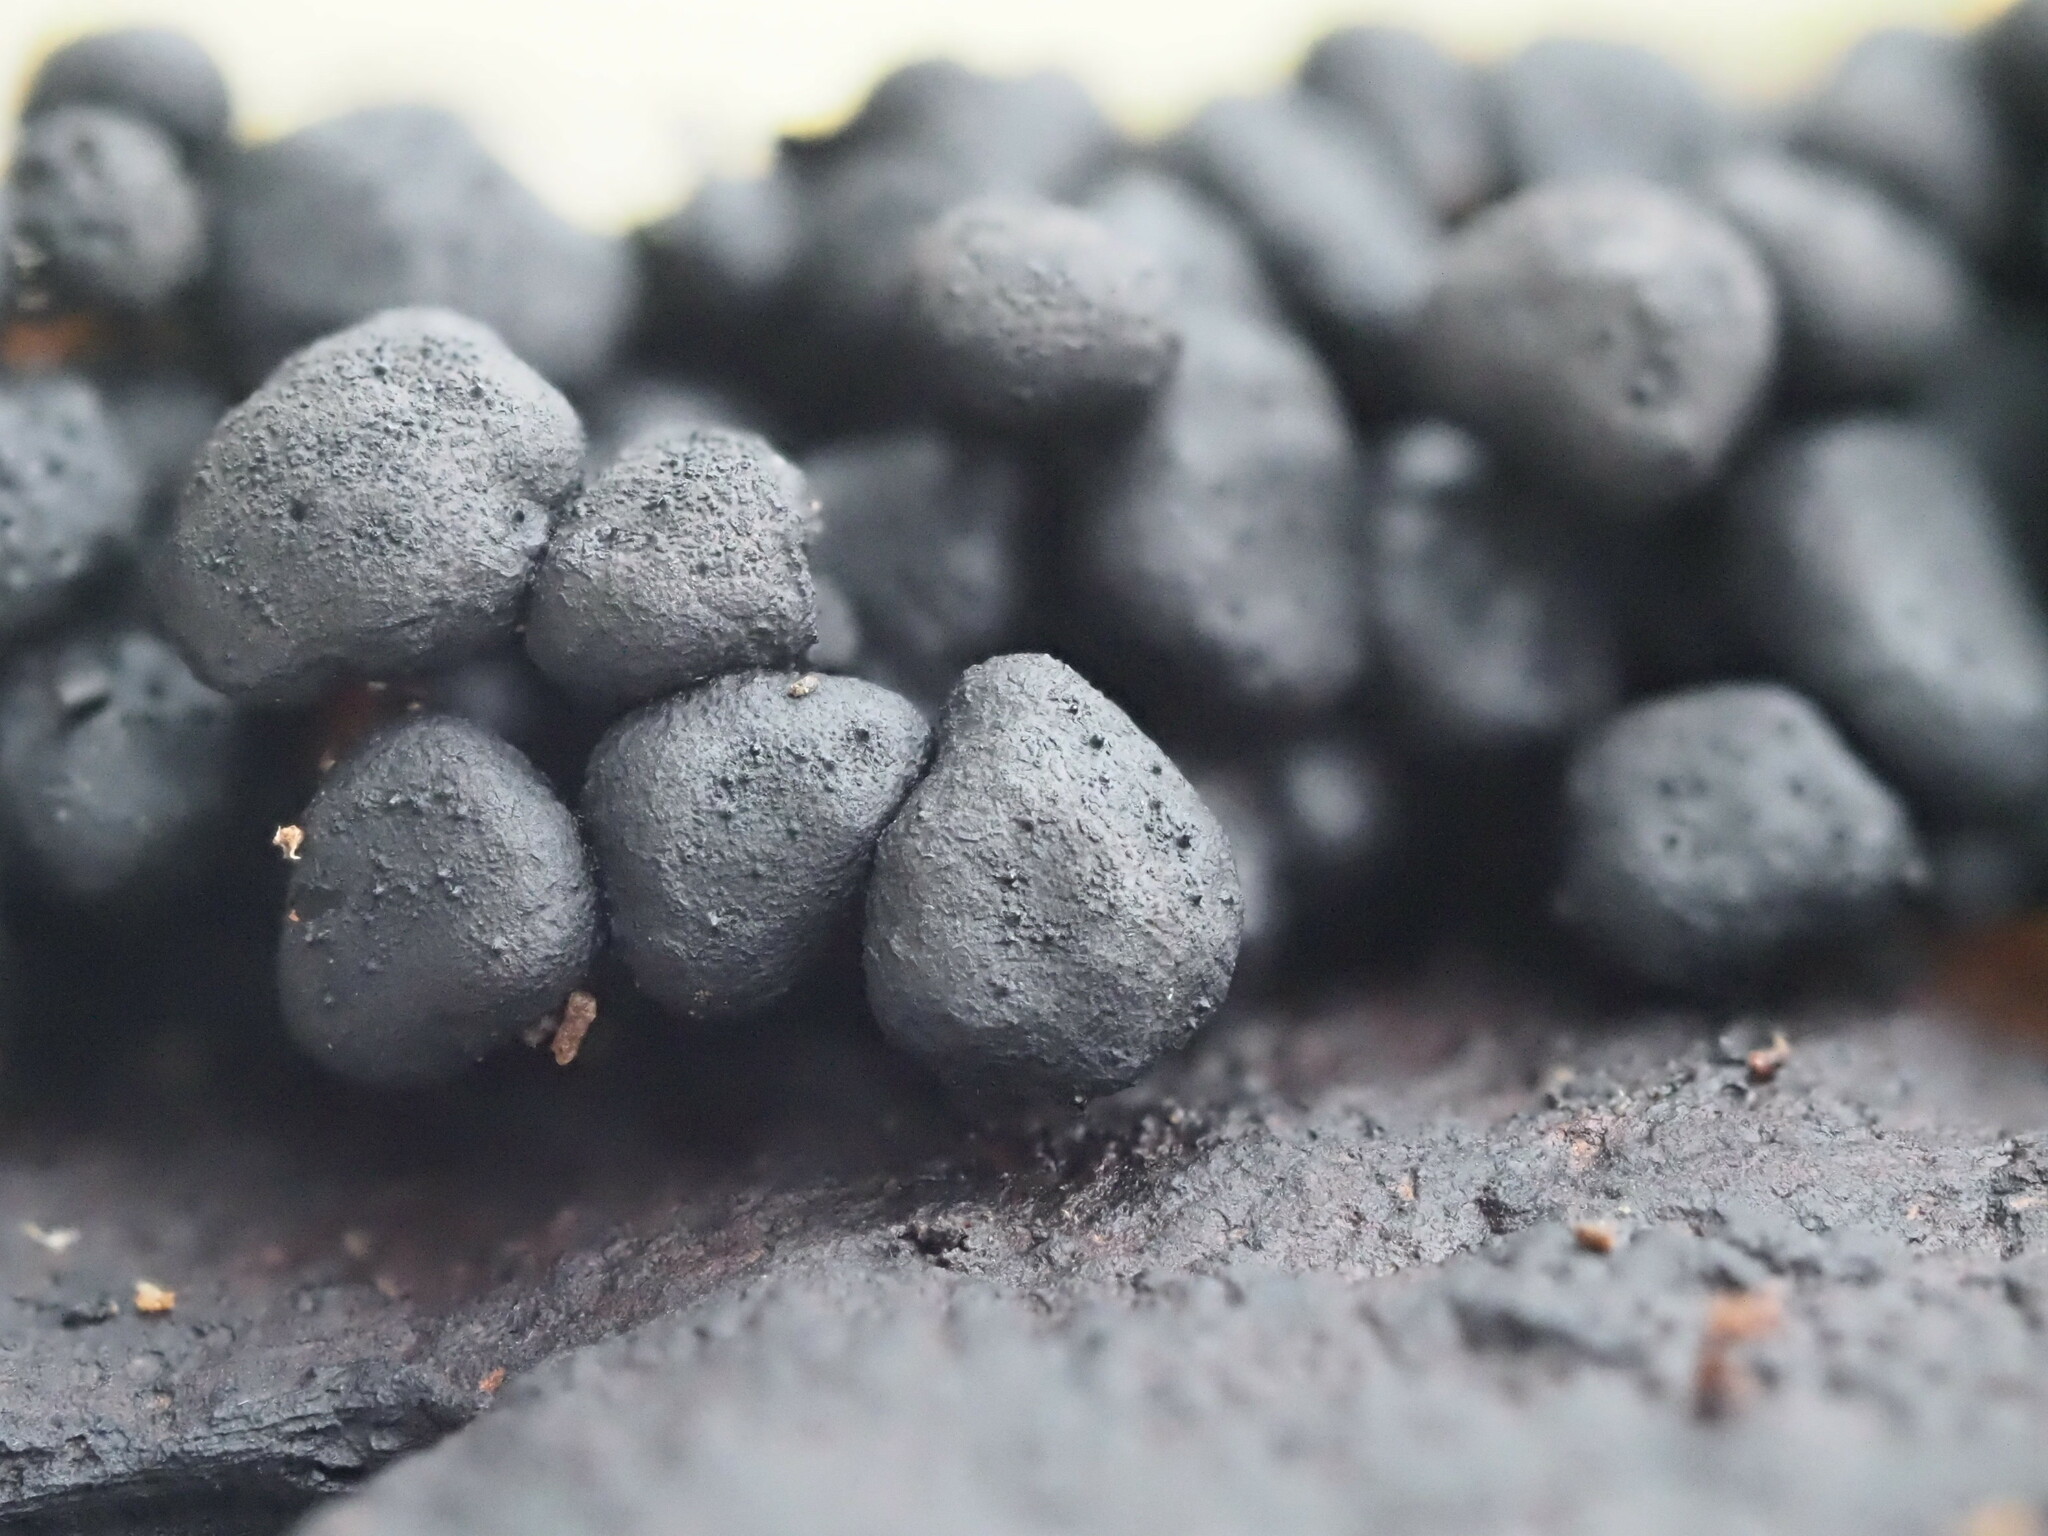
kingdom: Fungi
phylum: Ascomycota
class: Sordariomycetes
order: Xylariales
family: Xylariaceae
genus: Kretzschmaria
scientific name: Kretzschmaria clavus
